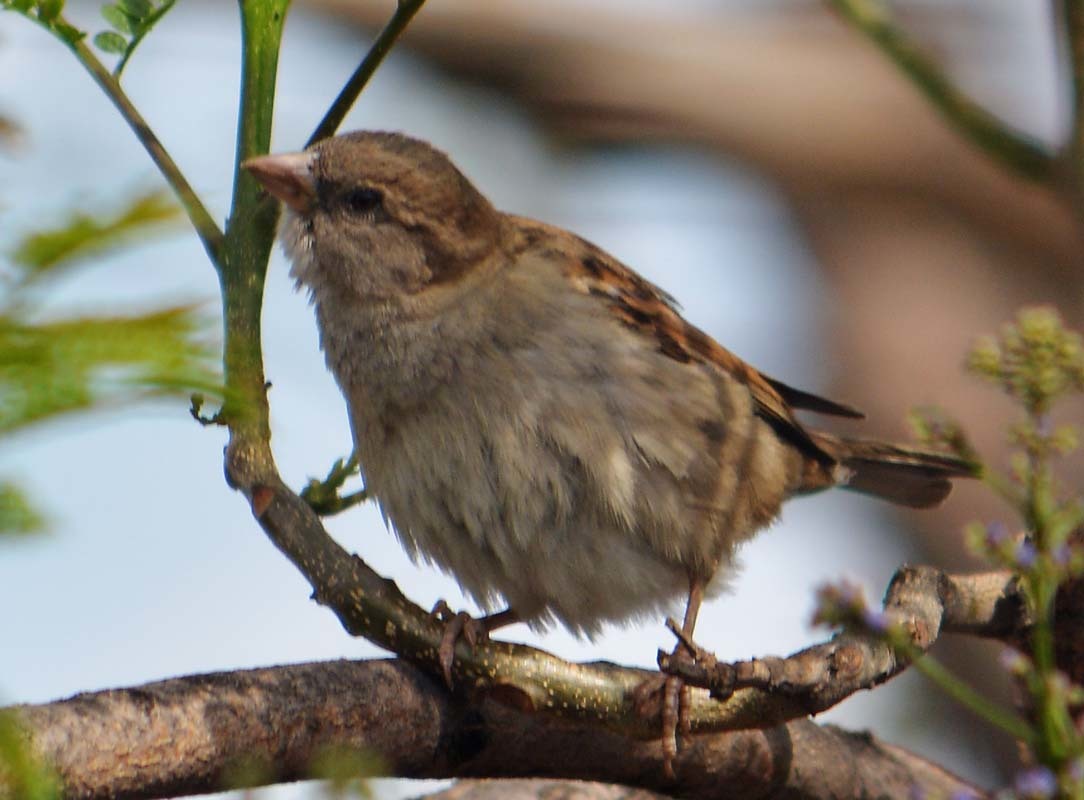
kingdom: Animalia
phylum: Chordata
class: Aves
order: Passeriformes
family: Passeridae
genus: Passer
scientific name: Passer domesticus
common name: House sparrow
